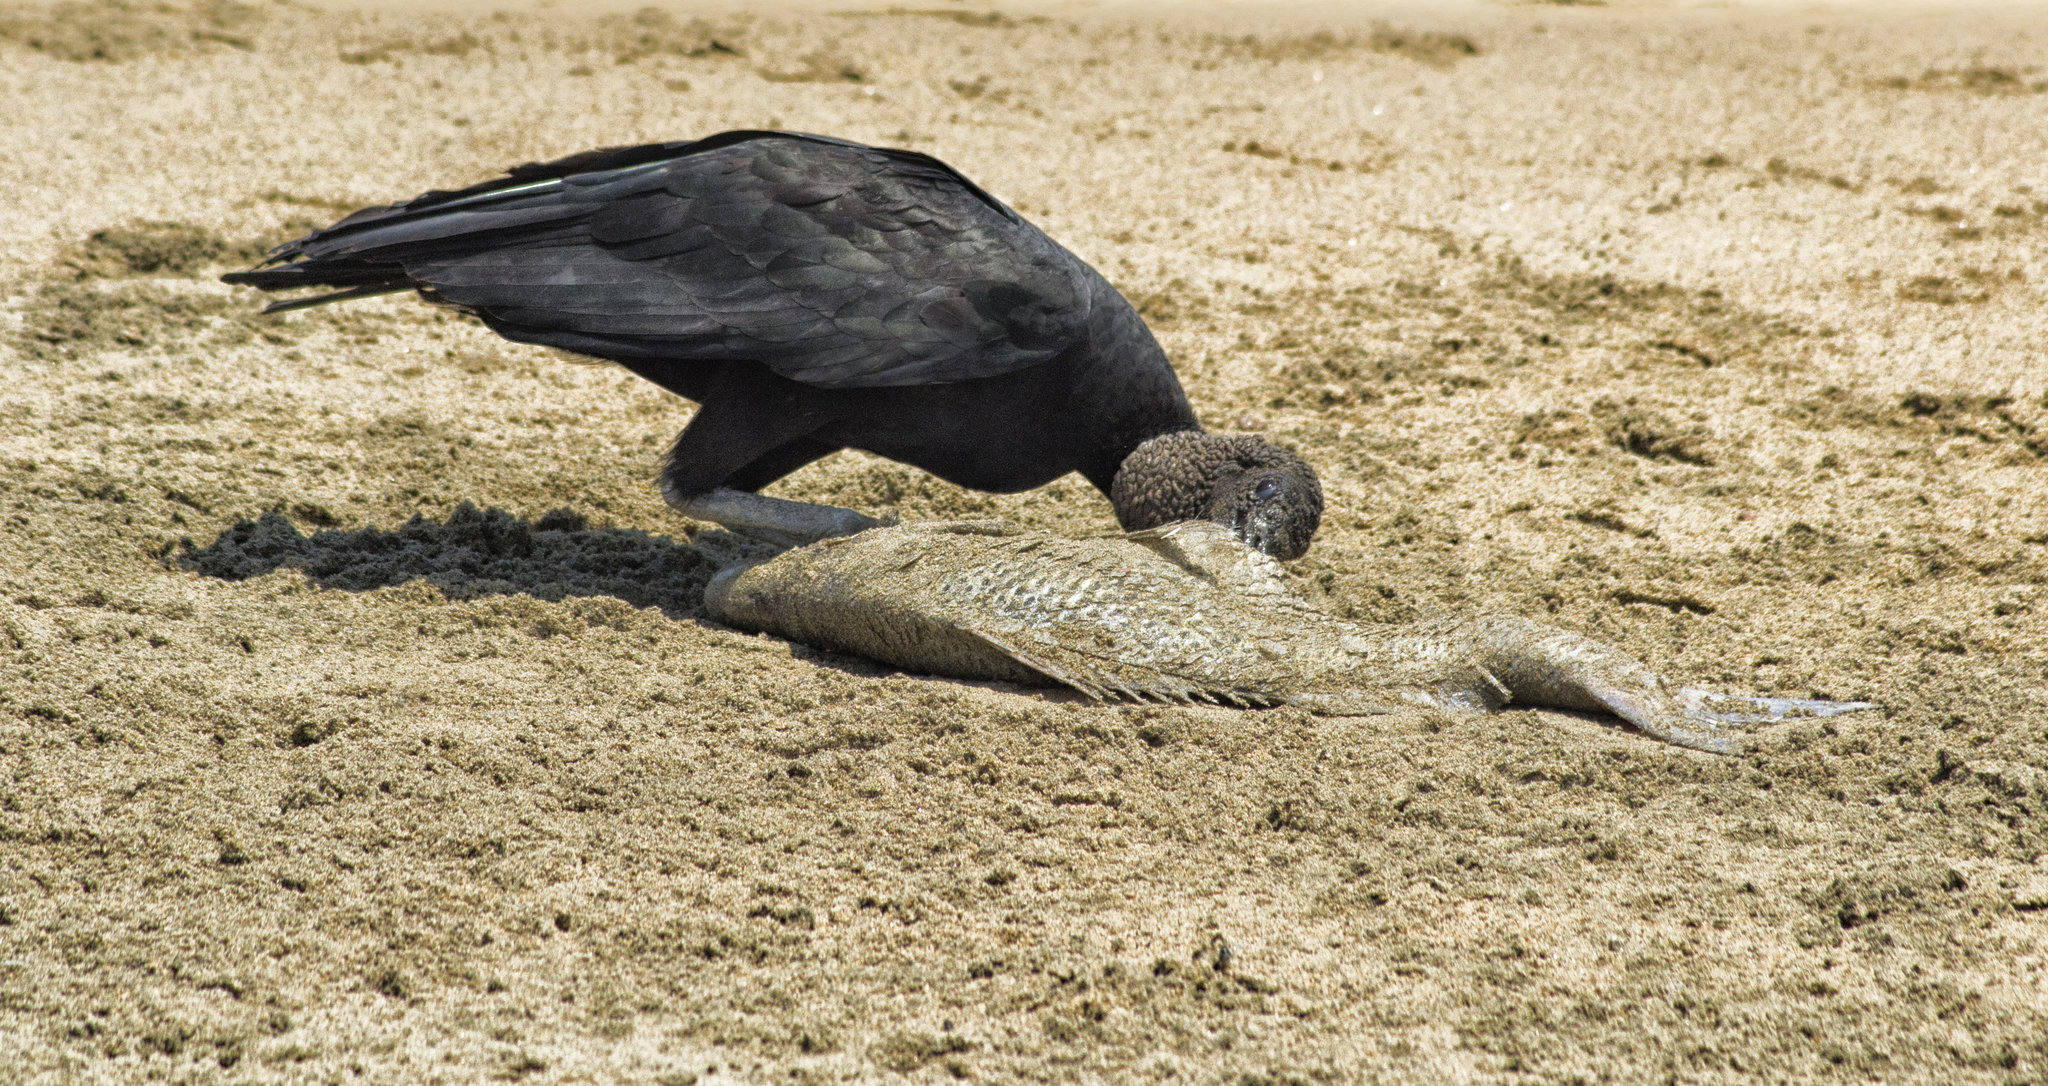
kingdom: Animalia
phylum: Chordata
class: Aves
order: Accipitriformes
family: Cathartidae
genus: Coragyps
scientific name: Coragyps atratus
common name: Black vulture
